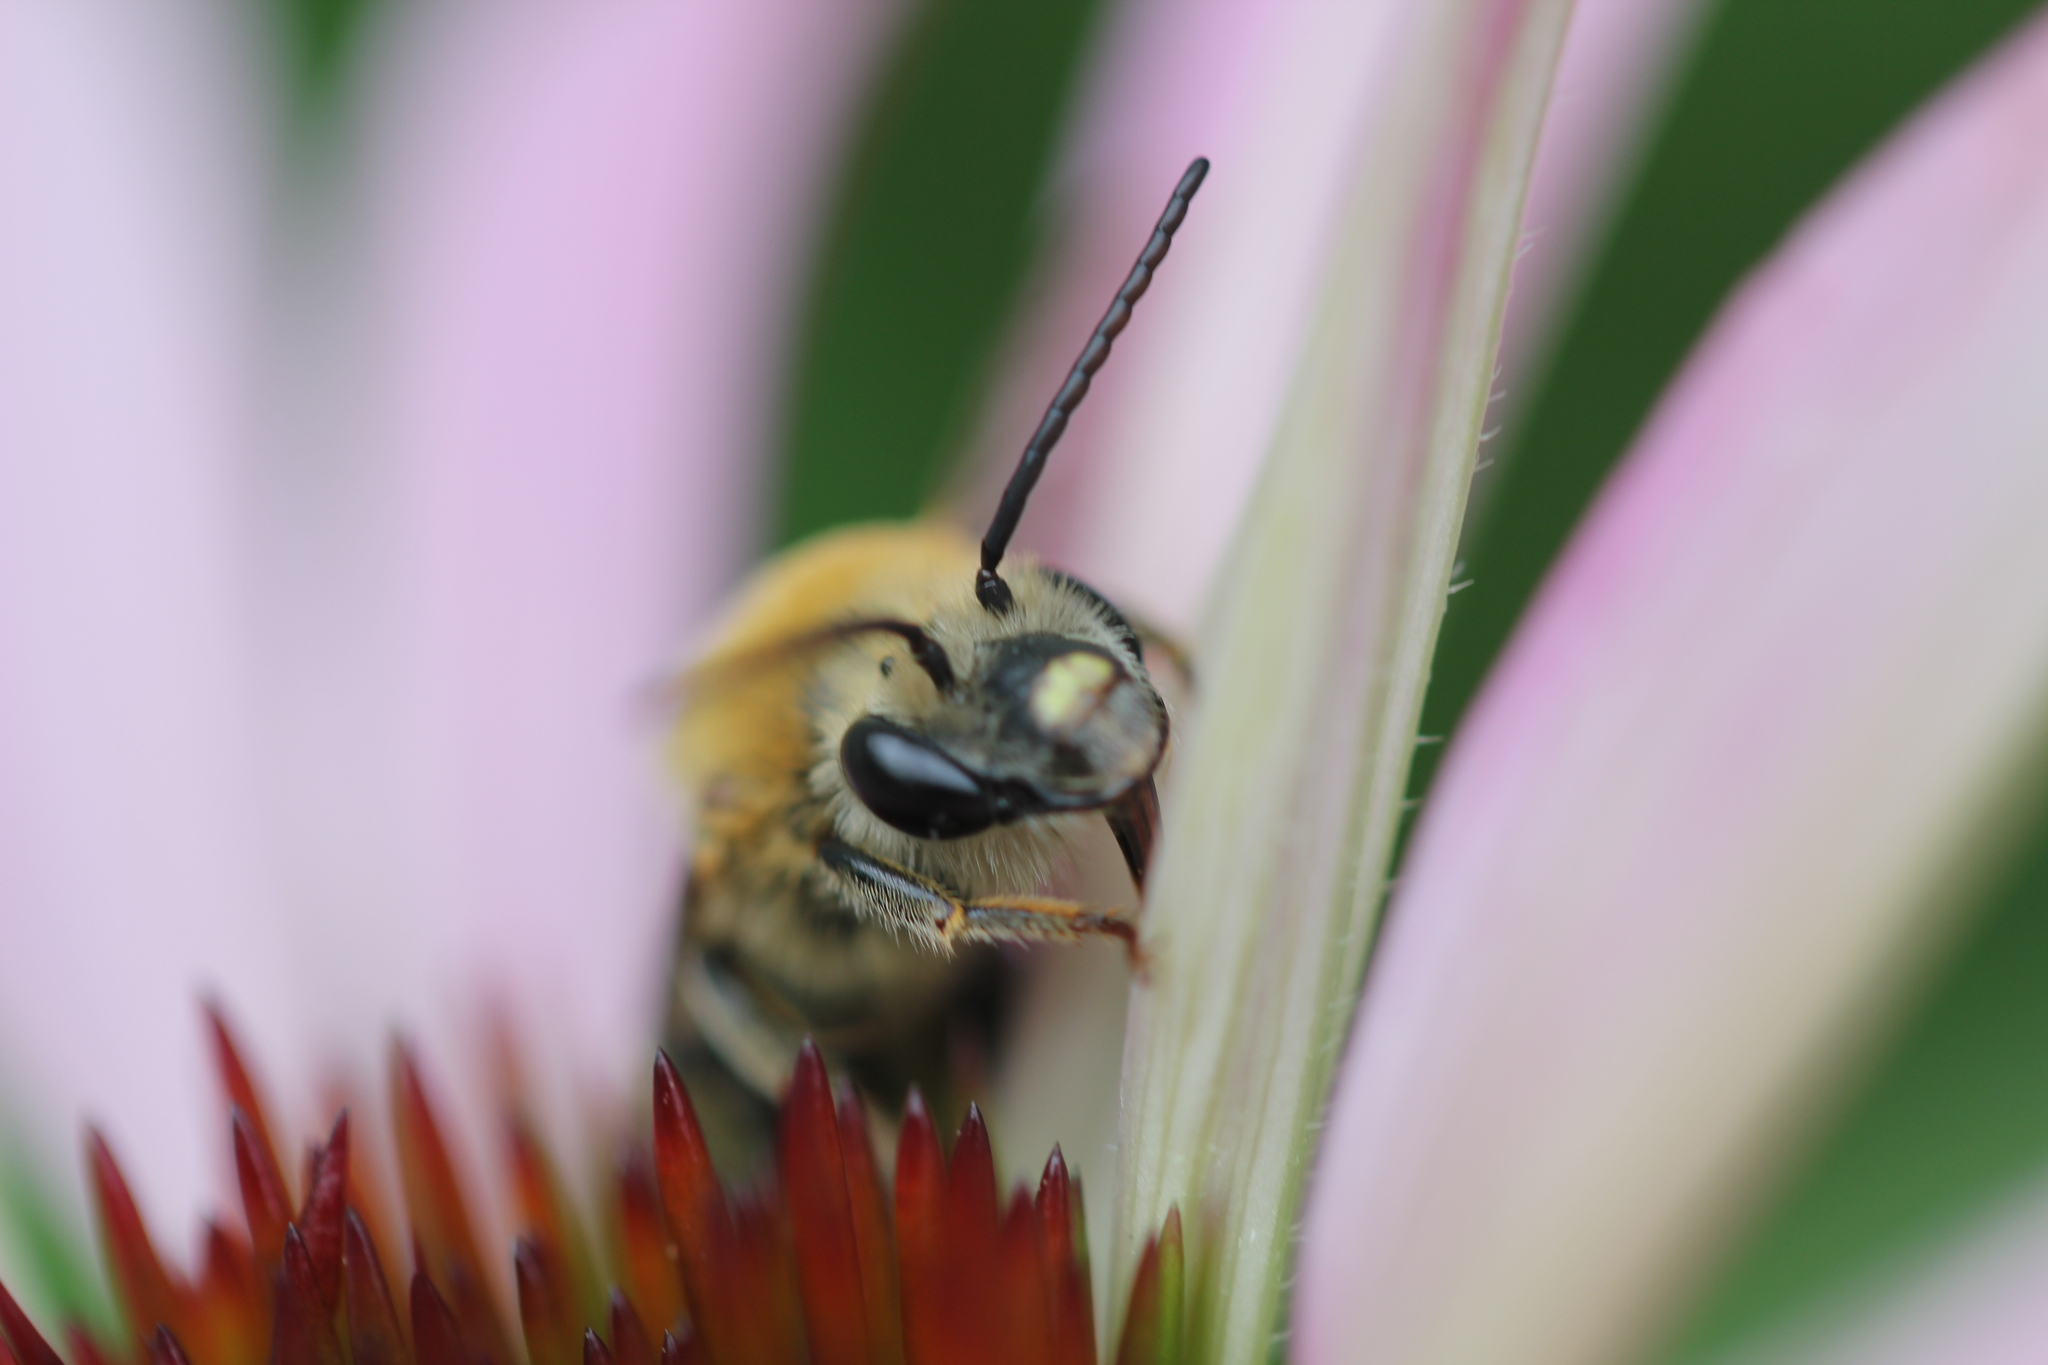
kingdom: Animalia
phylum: Arthropoda
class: Insecta
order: Hymenoptera
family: Apidae
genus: Peponapis
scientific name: Peponapis pruinosa
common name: Pruinose squash bee
